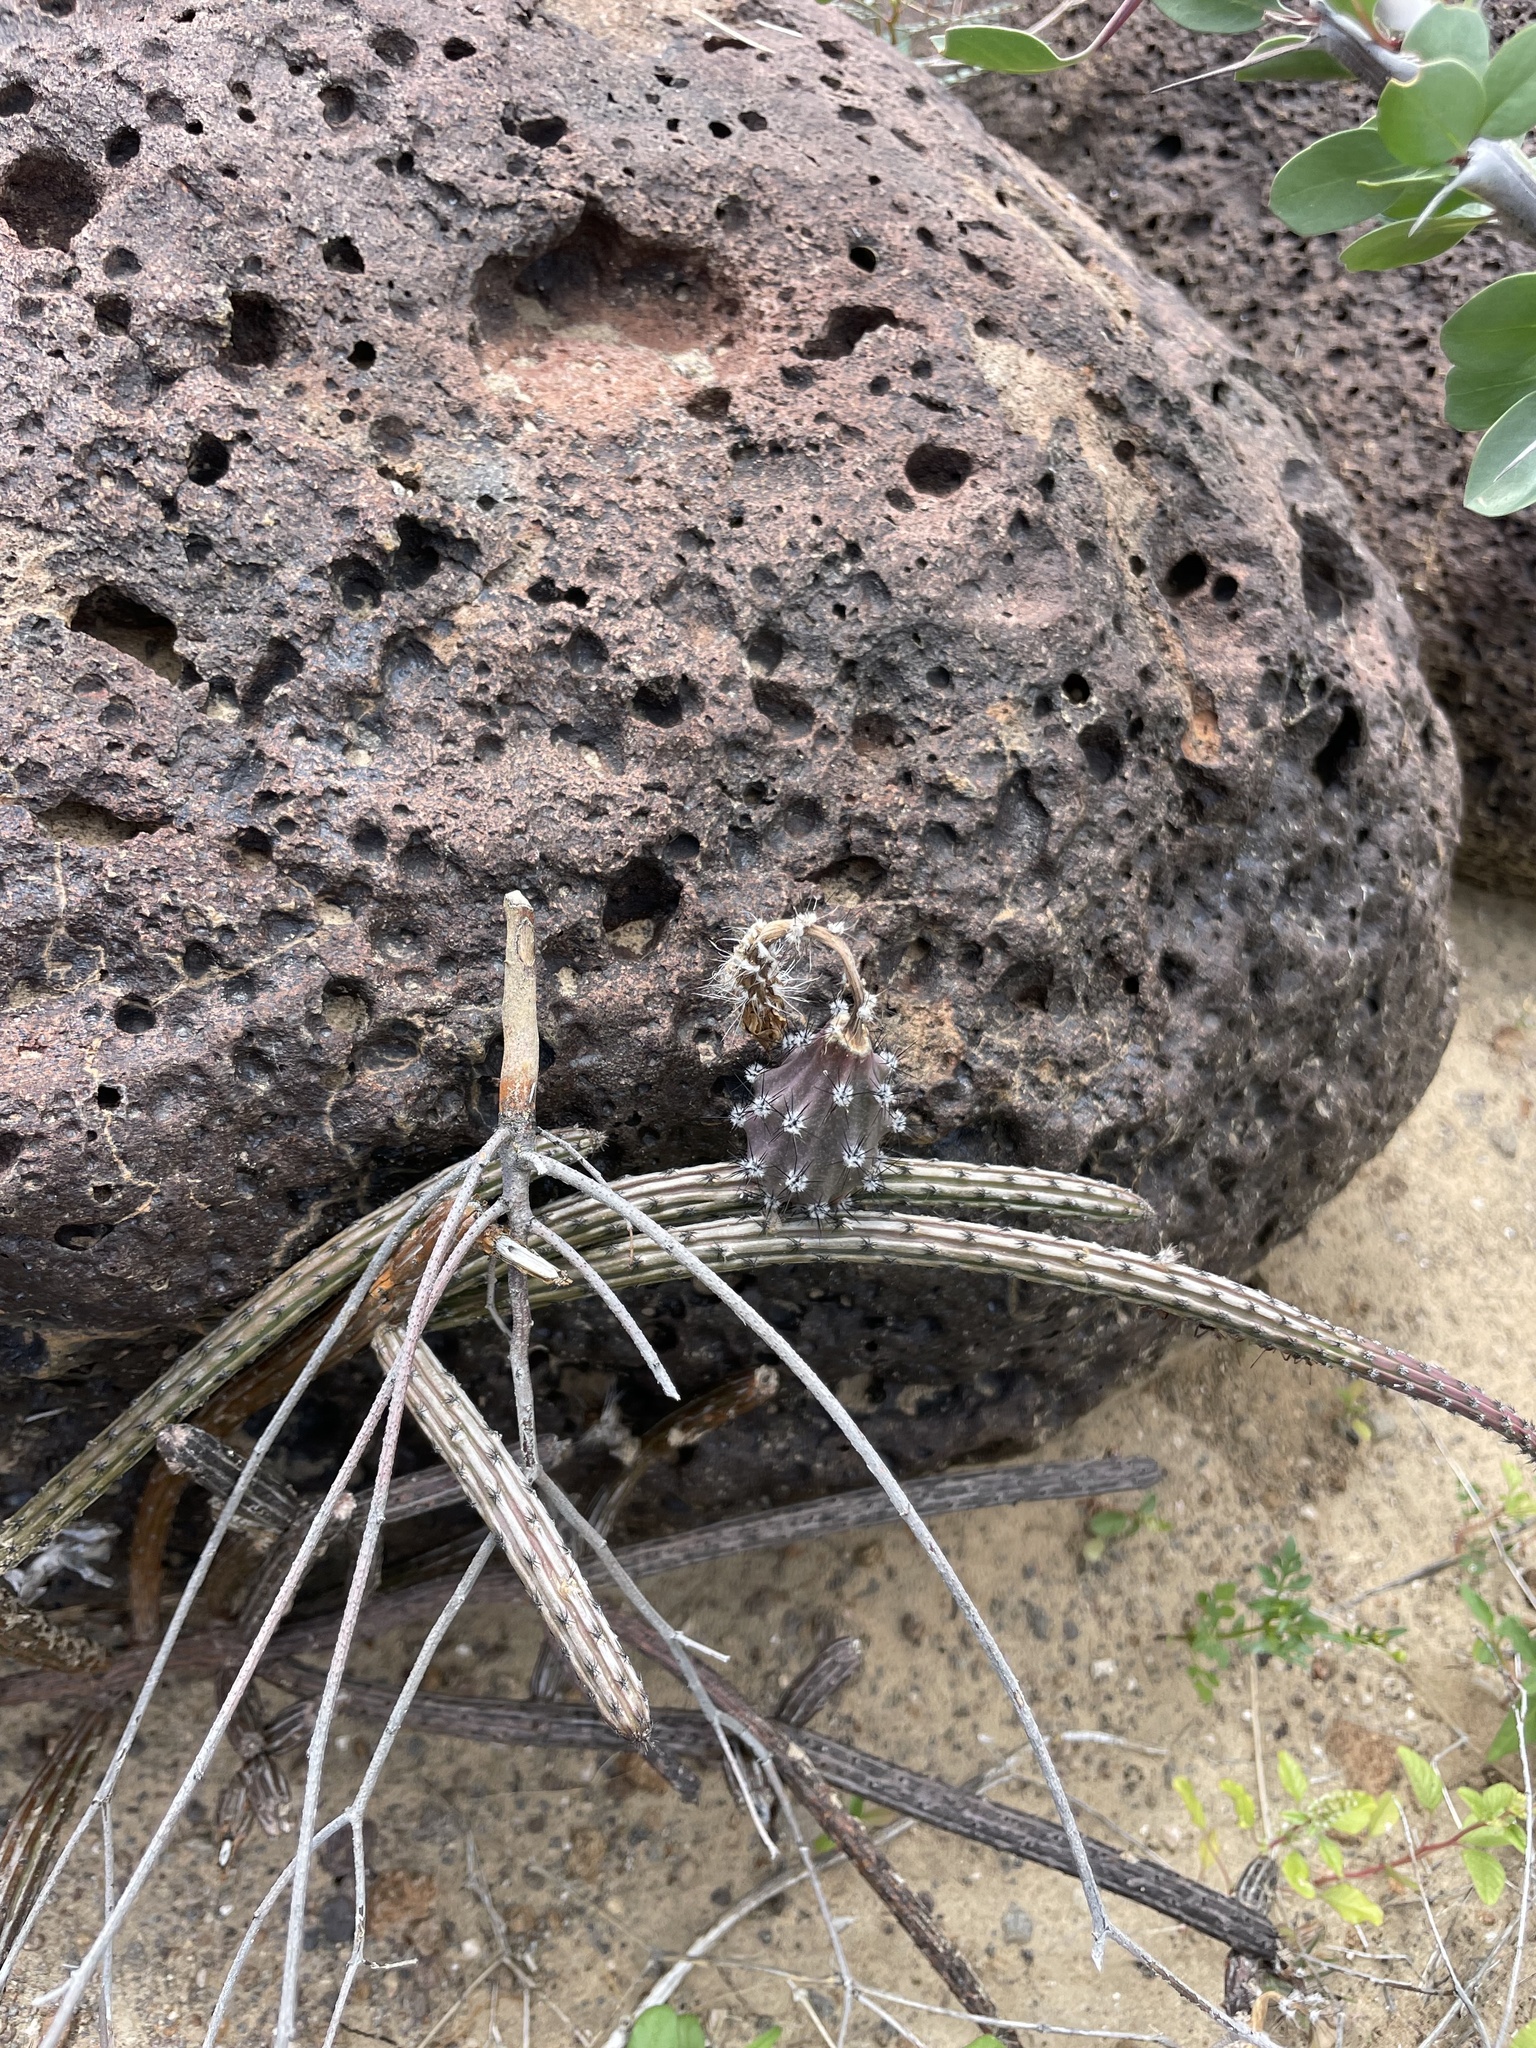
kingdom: Plantae
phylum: Tracheophyta
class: Magnoliopsida
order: Caryophyllales
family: Cactaceae
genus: Peniocereus
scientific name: Peniocereus striatus
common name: Gearstem cactus
